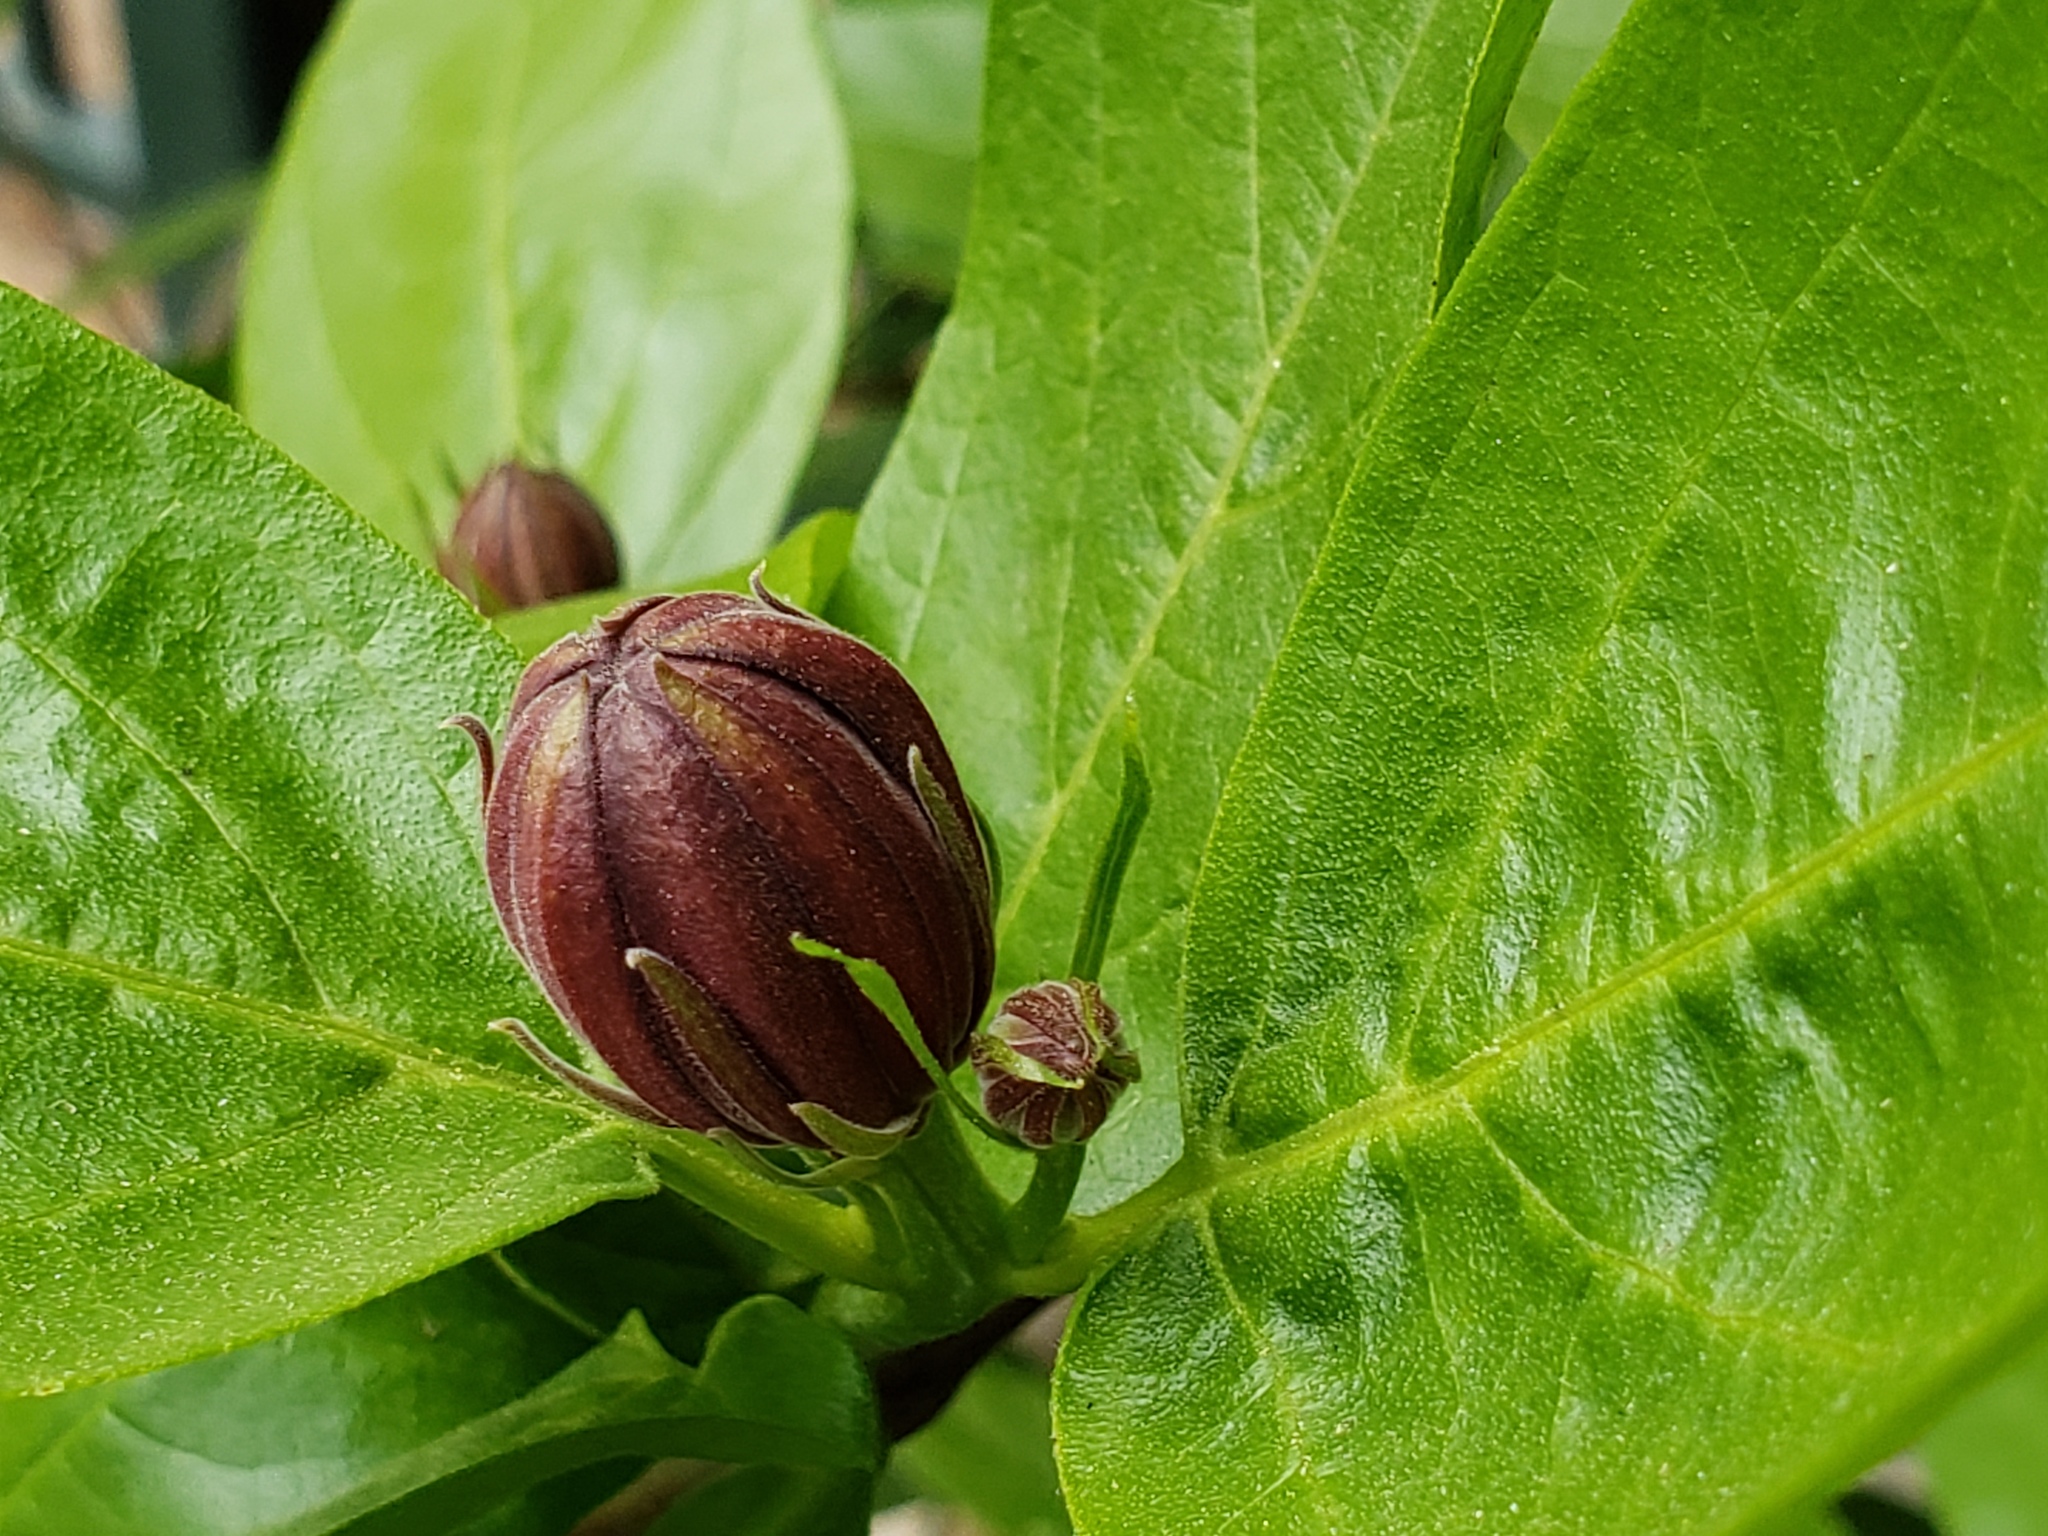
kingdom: Plantae
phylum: Tracheophyta
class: Magnoliopsida
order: Laurales
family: Calycanthaceae
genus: Calycanthus
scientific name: Calycanthus occidentalis
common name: California spicebush
